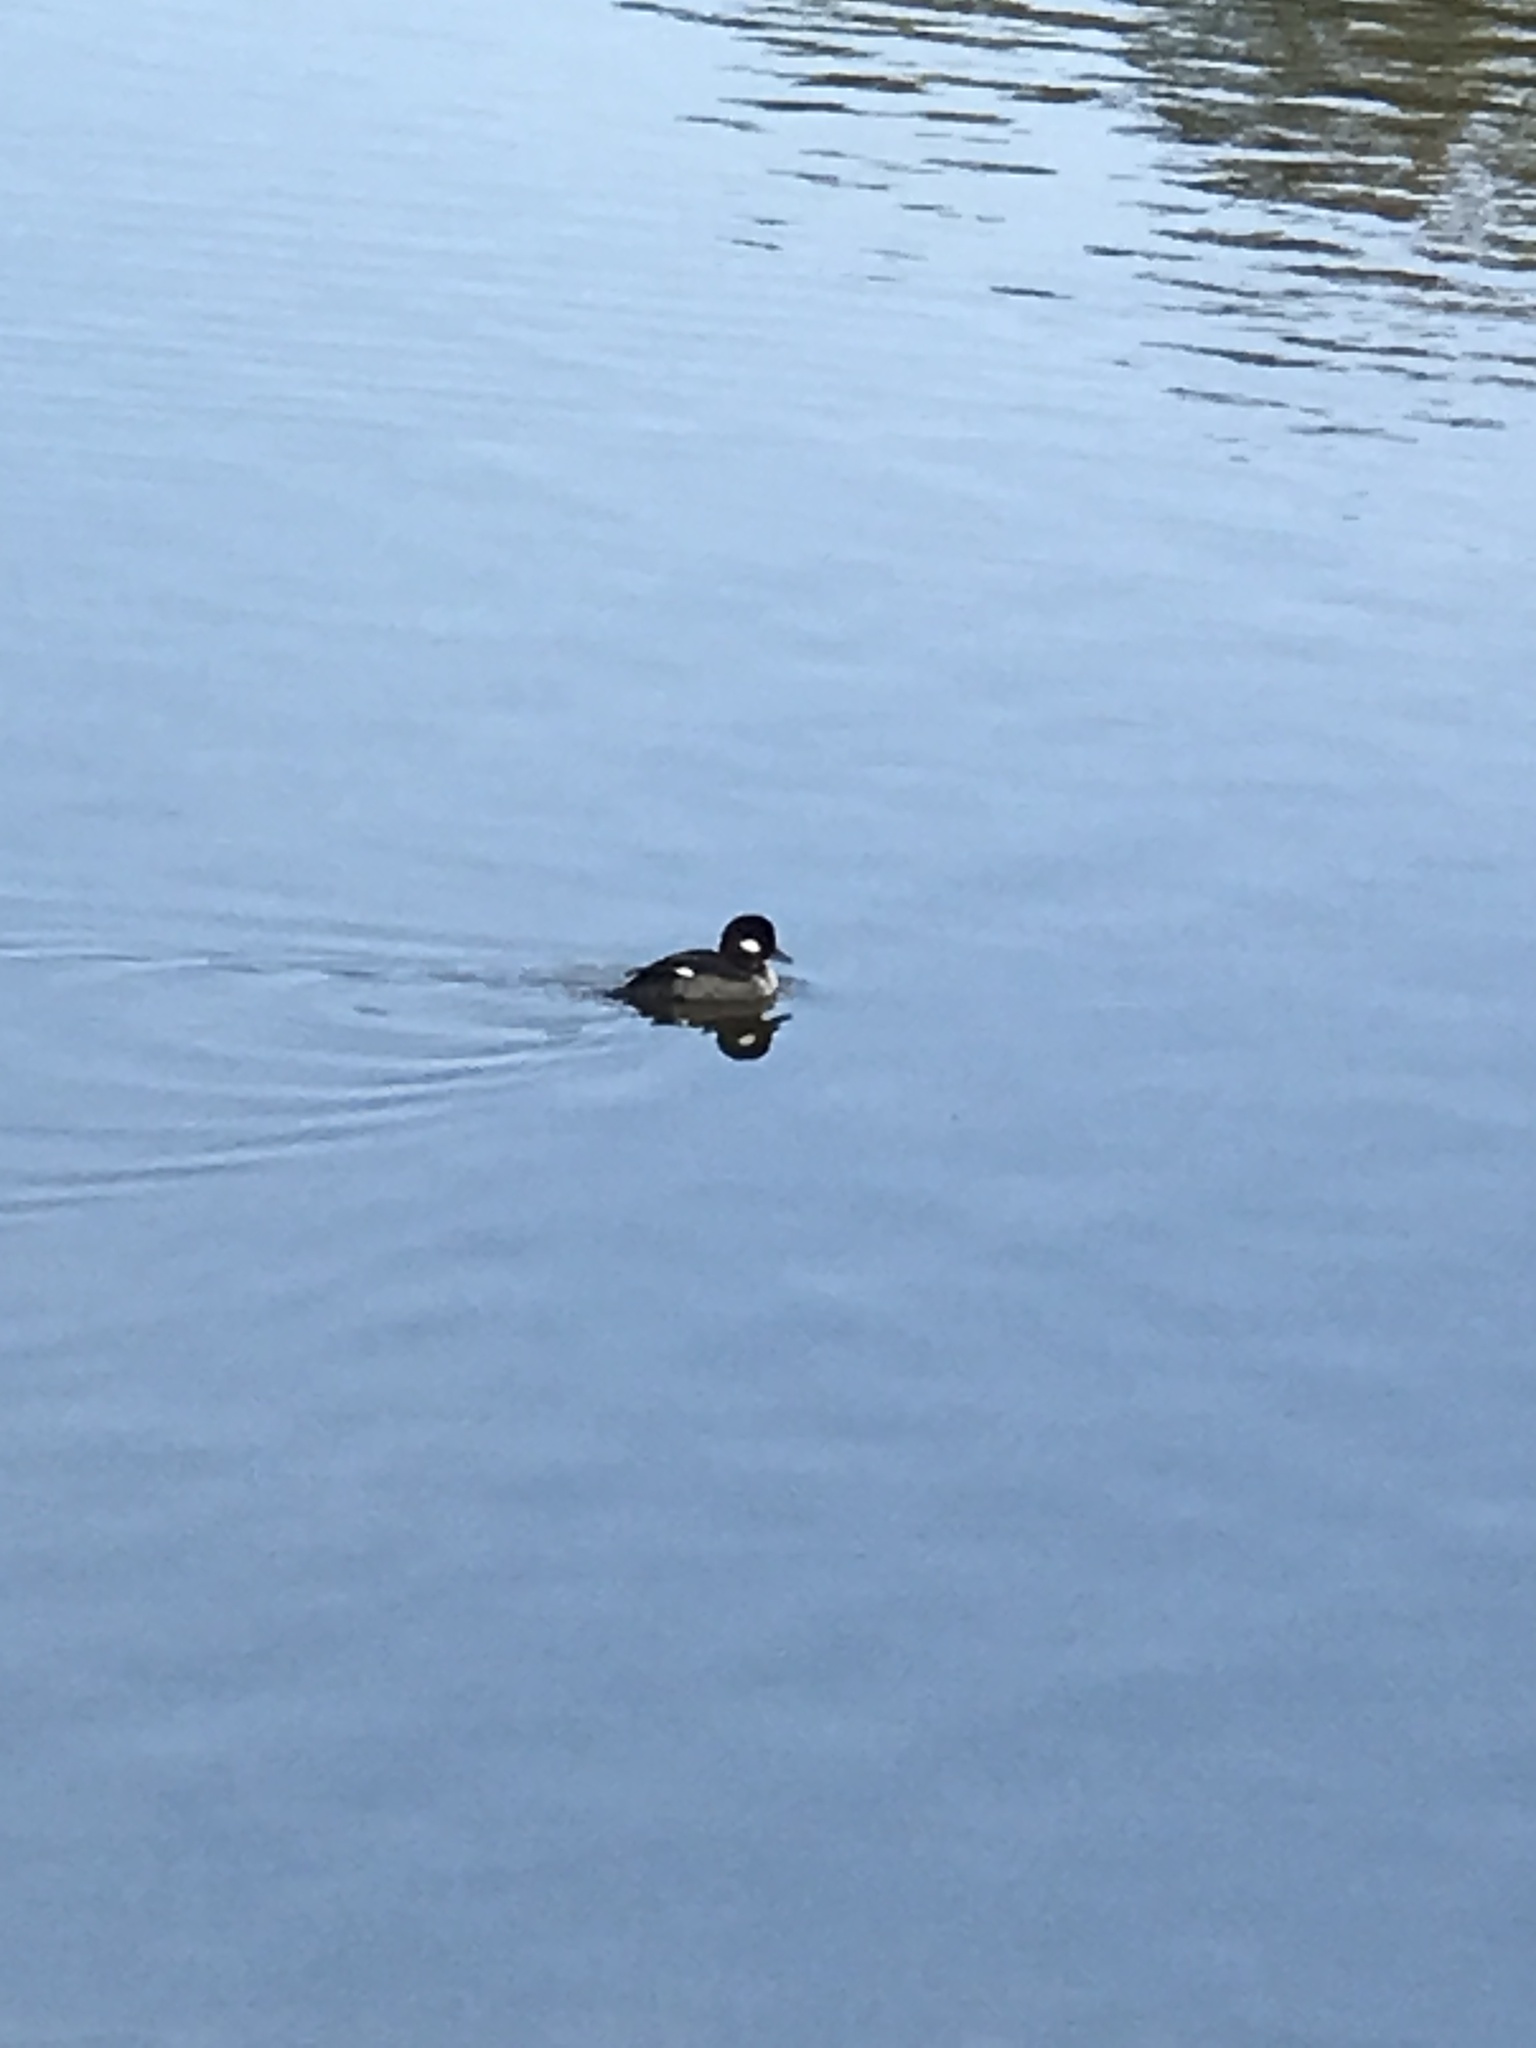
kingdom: Animalia
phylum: Chordata
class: Aves
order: Anseriformes
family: Anatidae
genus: Bucephala
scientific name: Bucephala albeola
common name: Bufflehead
